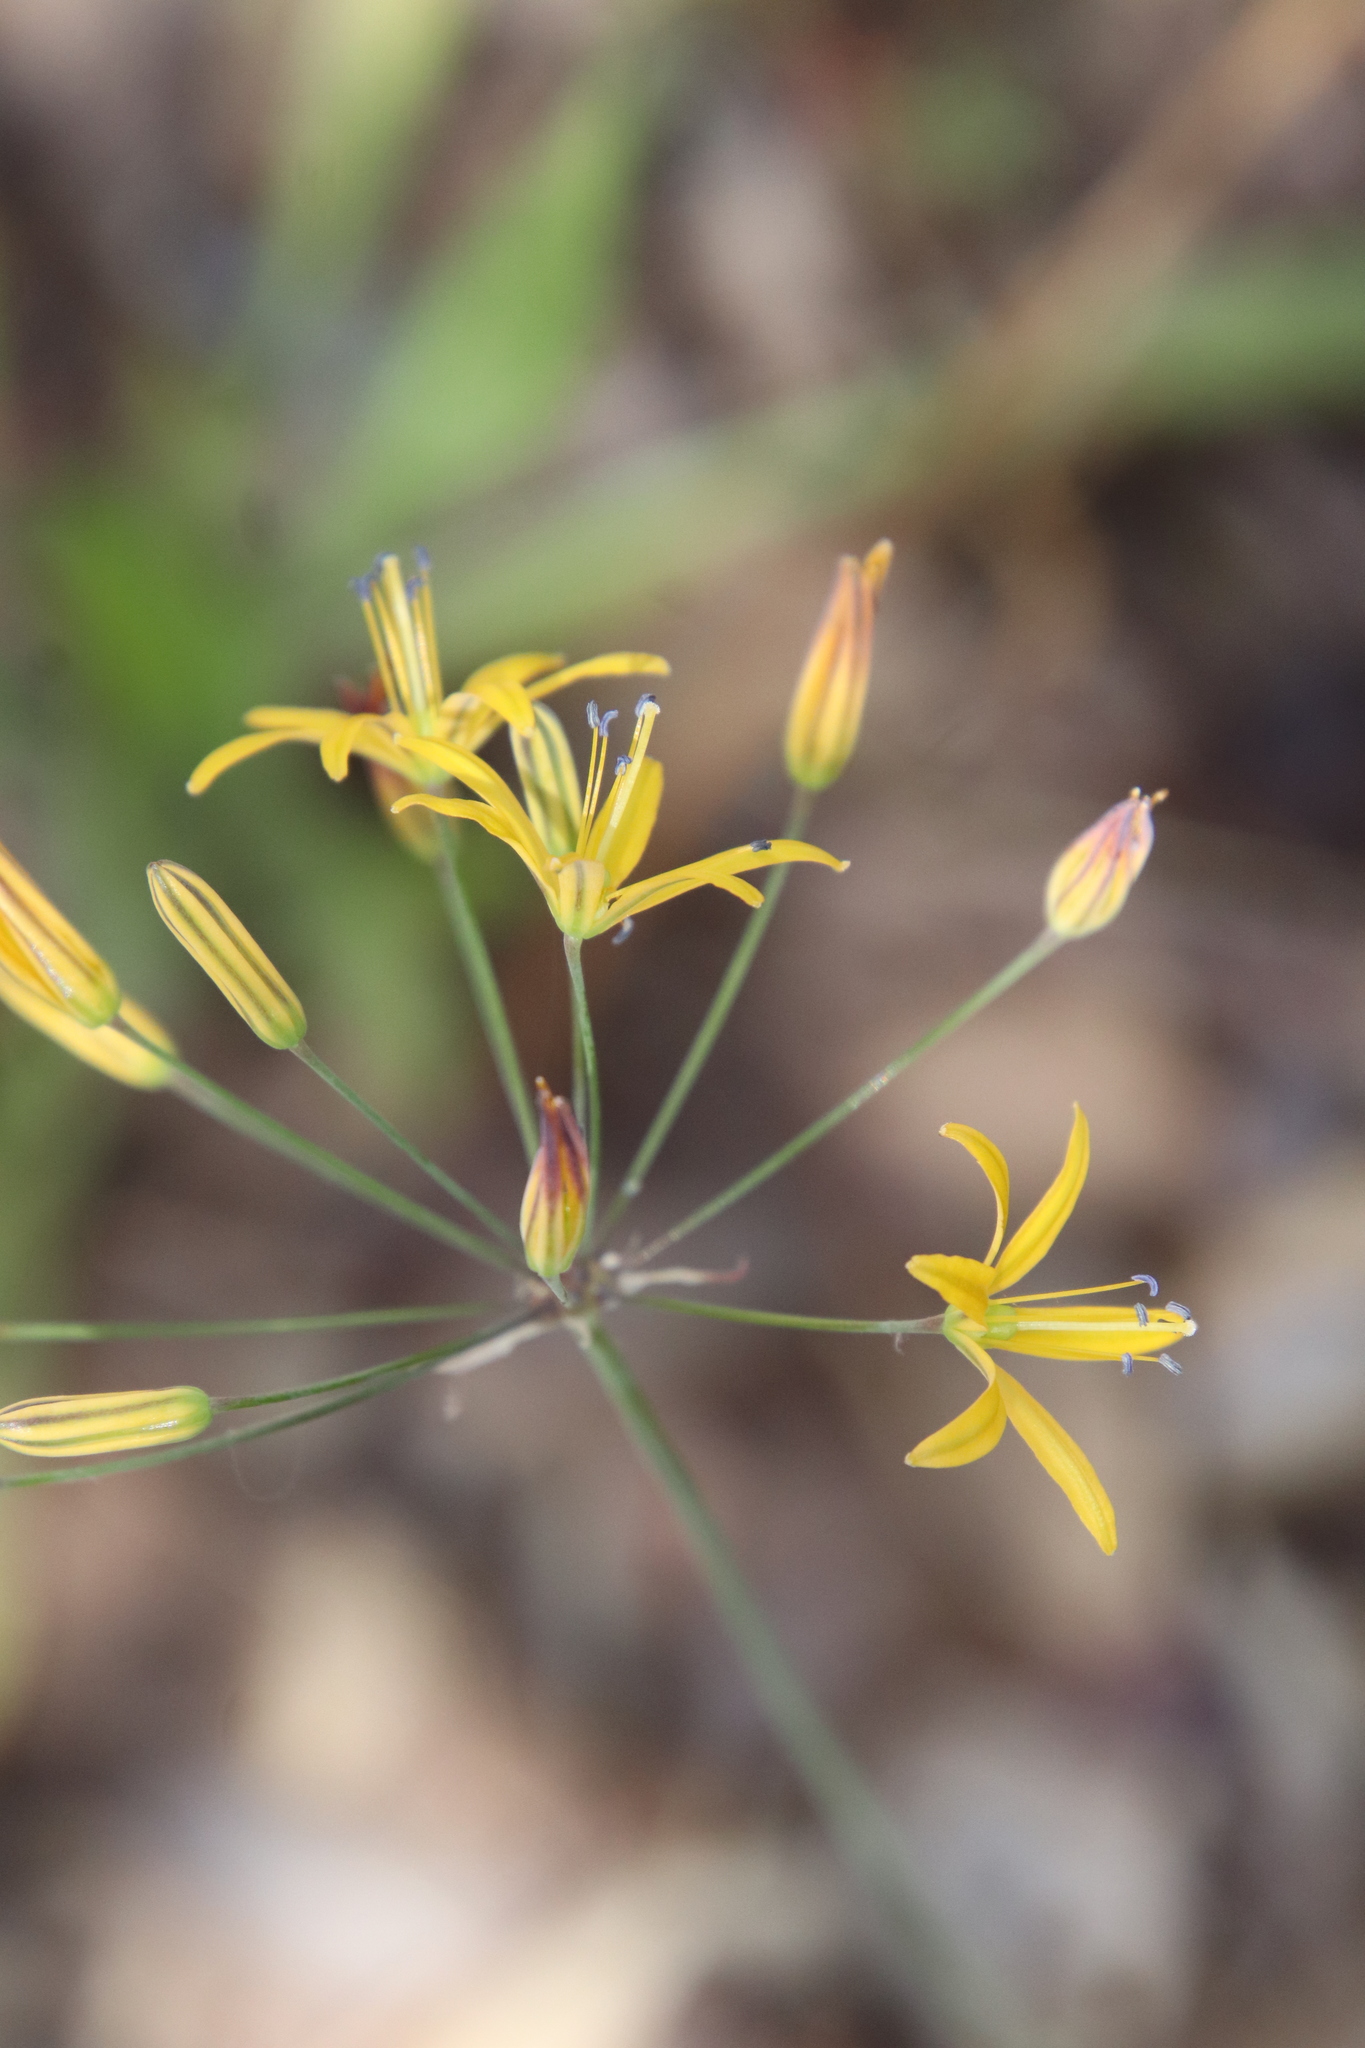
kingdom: Plantae
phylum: Tracheophyta
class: Liliopsida
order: Asparagales
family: Asparagaceae
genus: Bloomeria
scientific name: Bloomeria crocea
